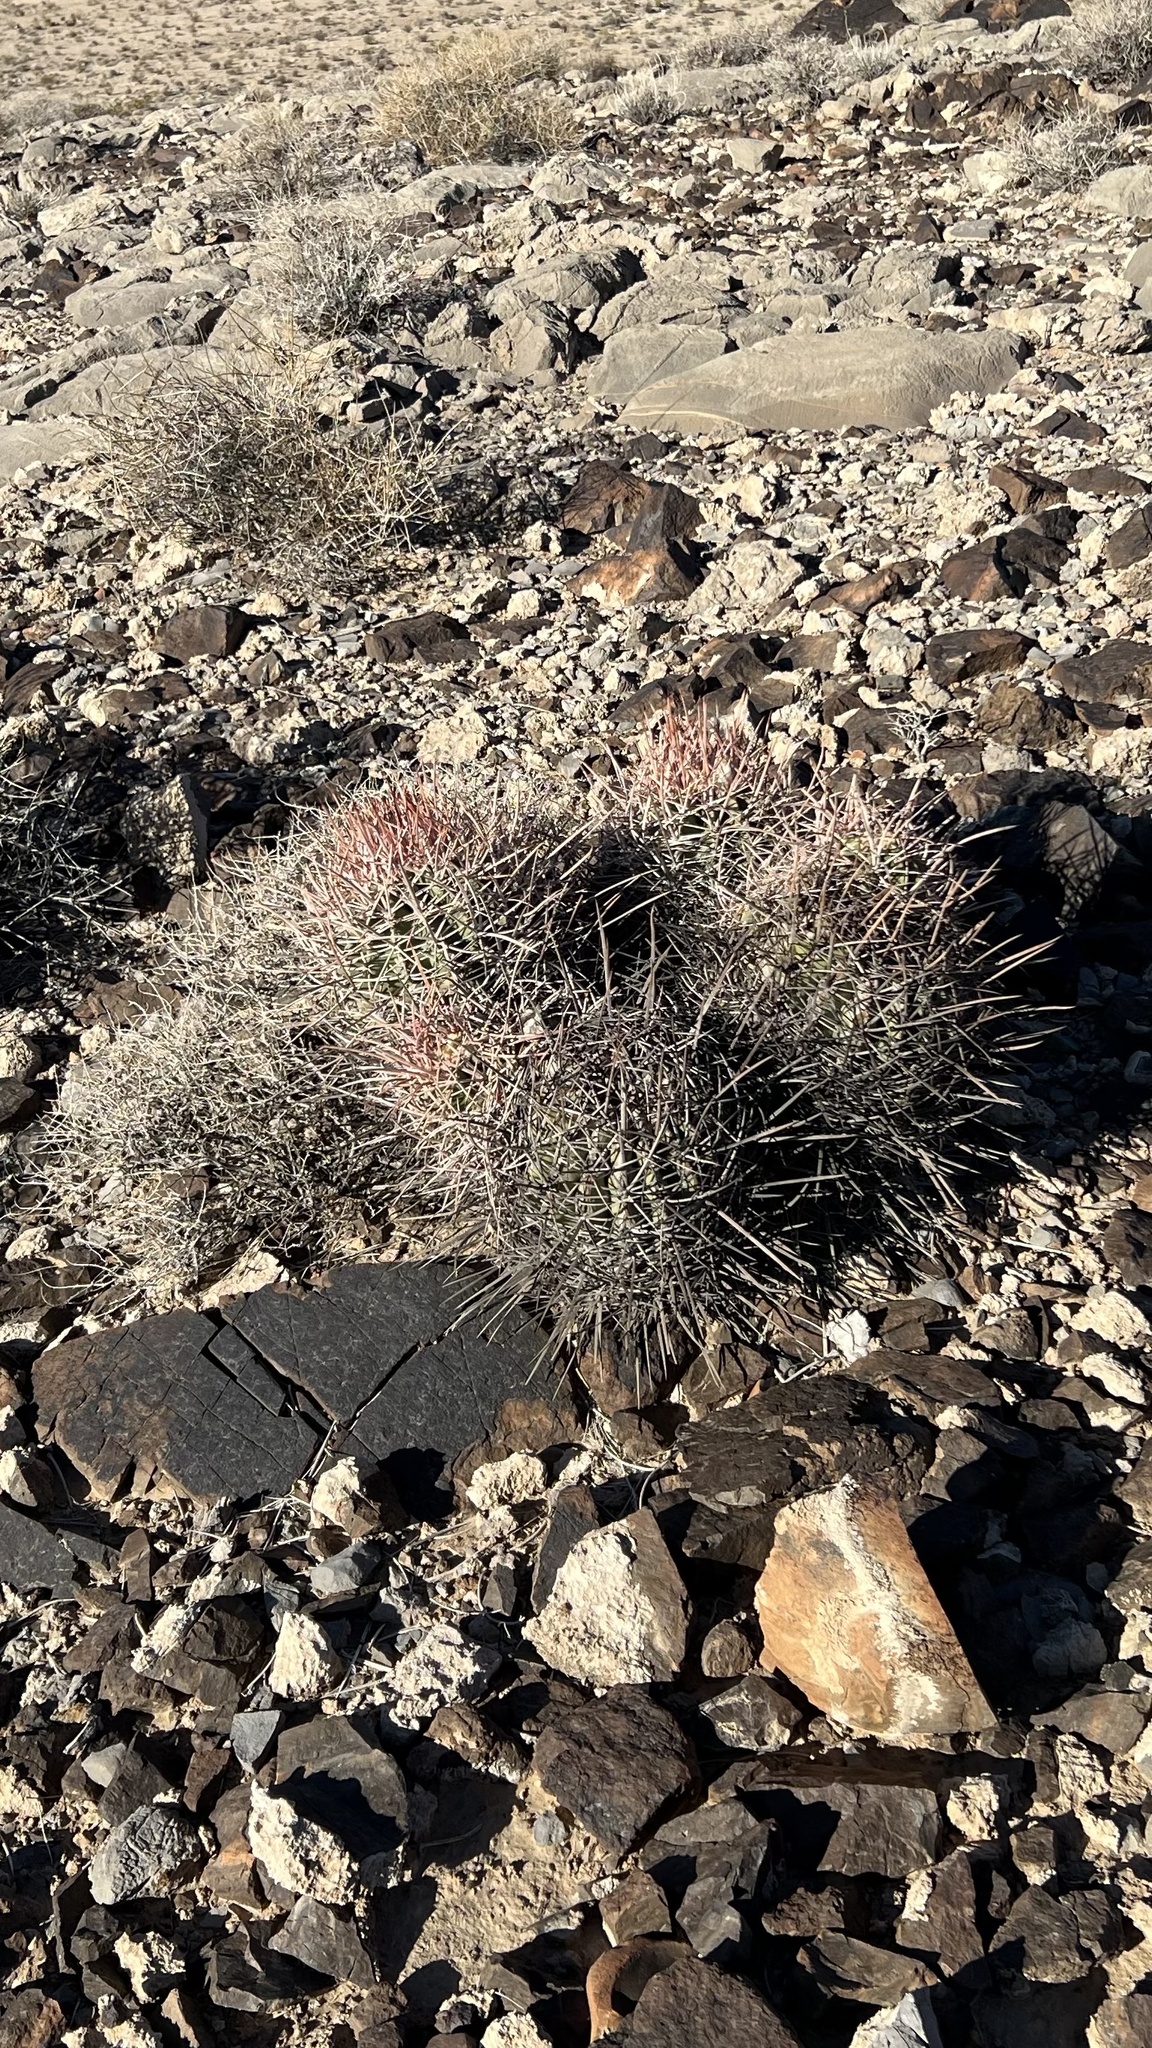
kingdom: Plantae
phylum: Tracheophyta
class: Magnoliopsida
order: Caryophyllales
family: Cactaceae
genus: Echinocactus
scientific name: Echinocactus polycephalus
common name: Cottontop cactus
